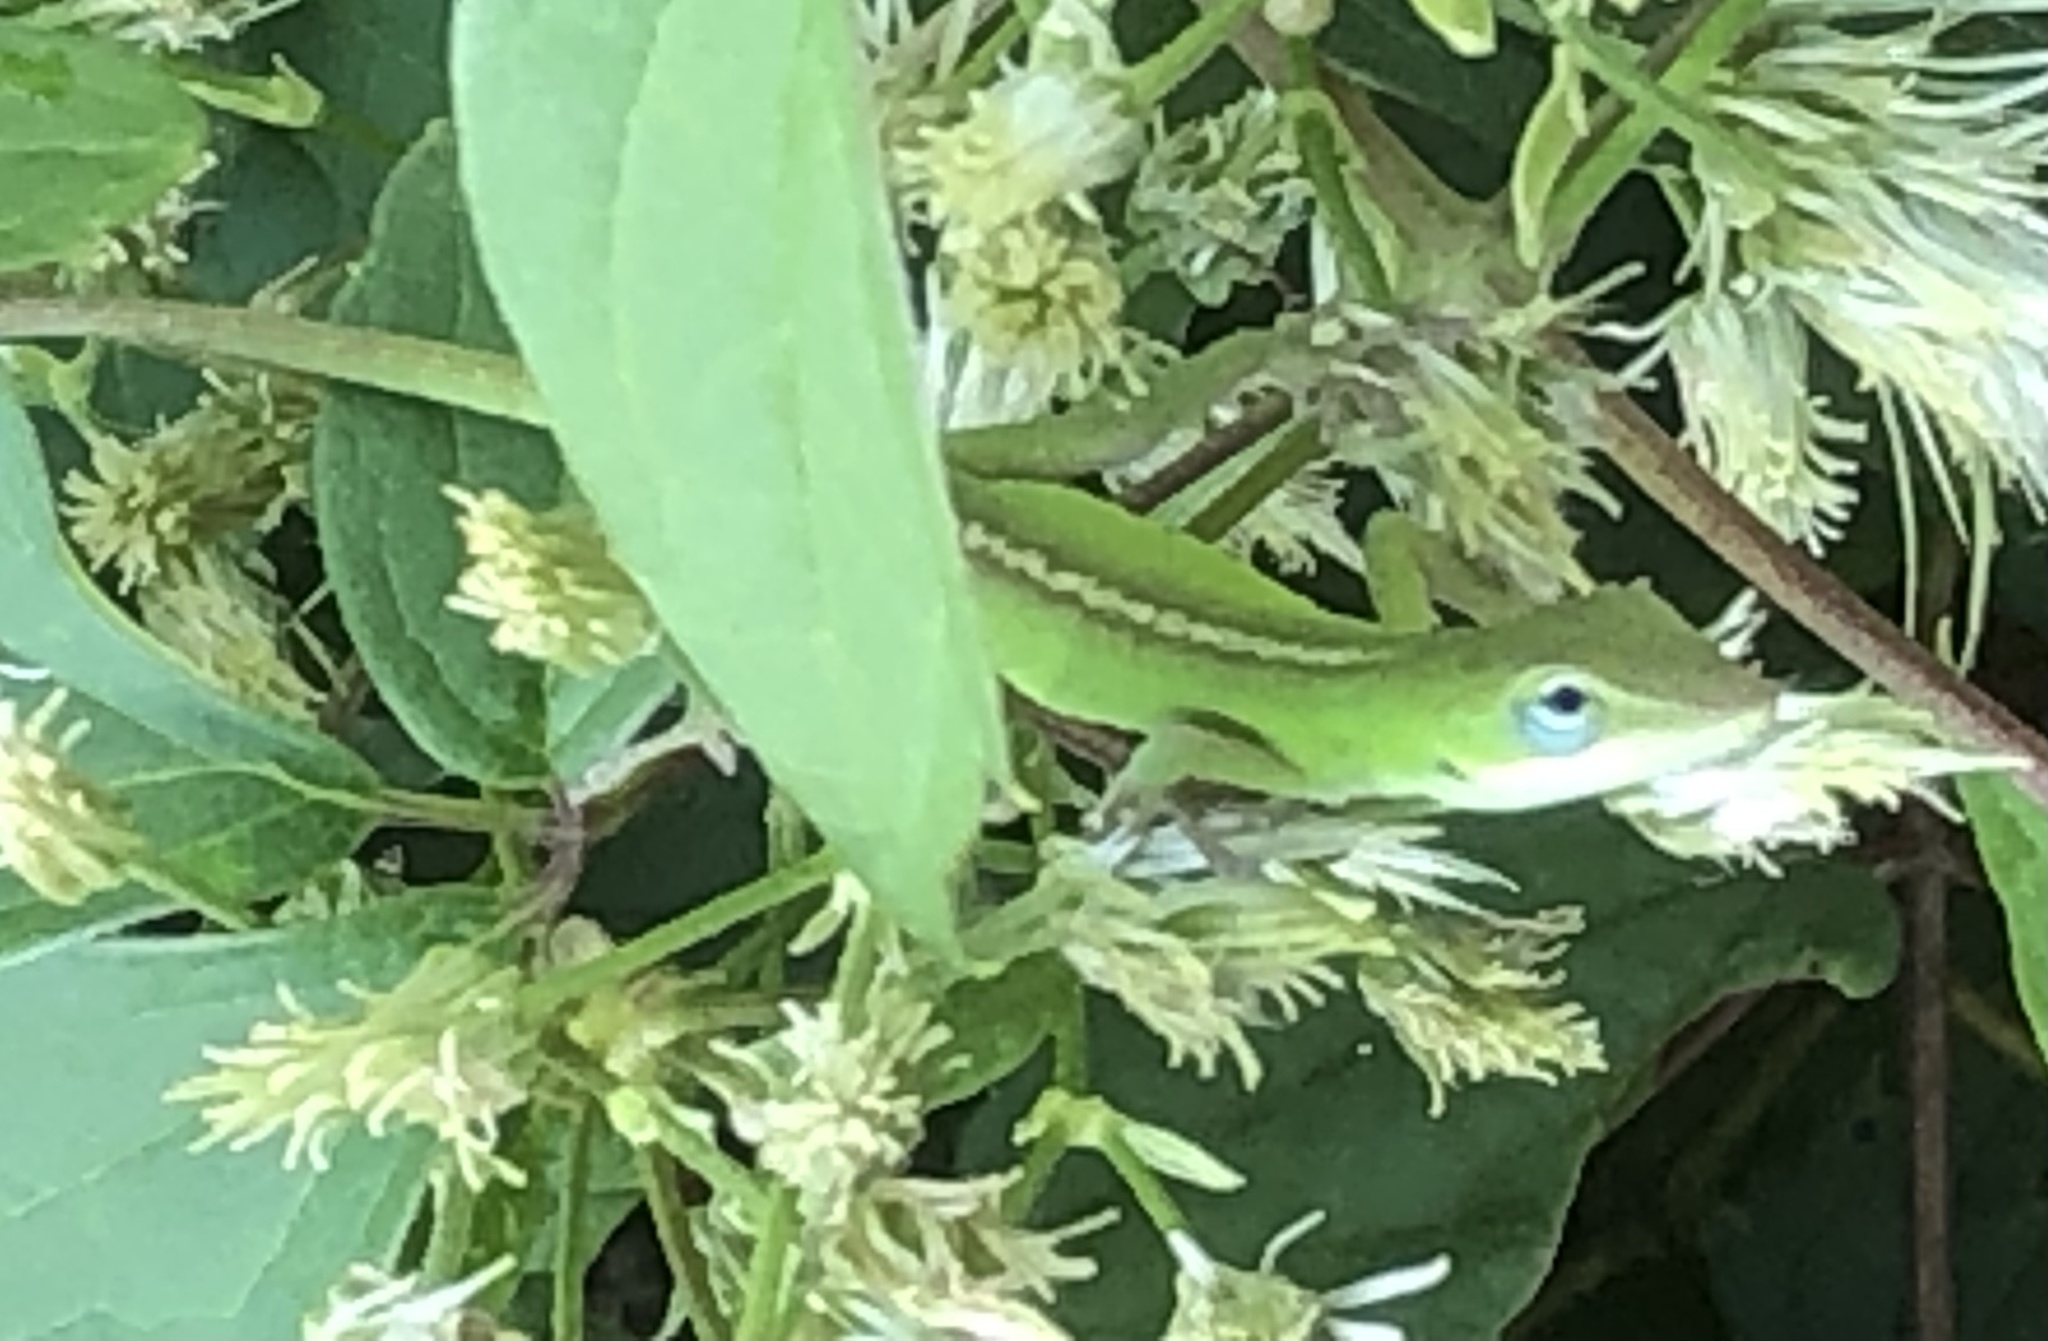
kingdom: Animalia
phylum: Chordata
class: Squamata
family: Dactyloidae
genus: Anolis
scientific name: Anolis carolinensis
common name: Green anole
